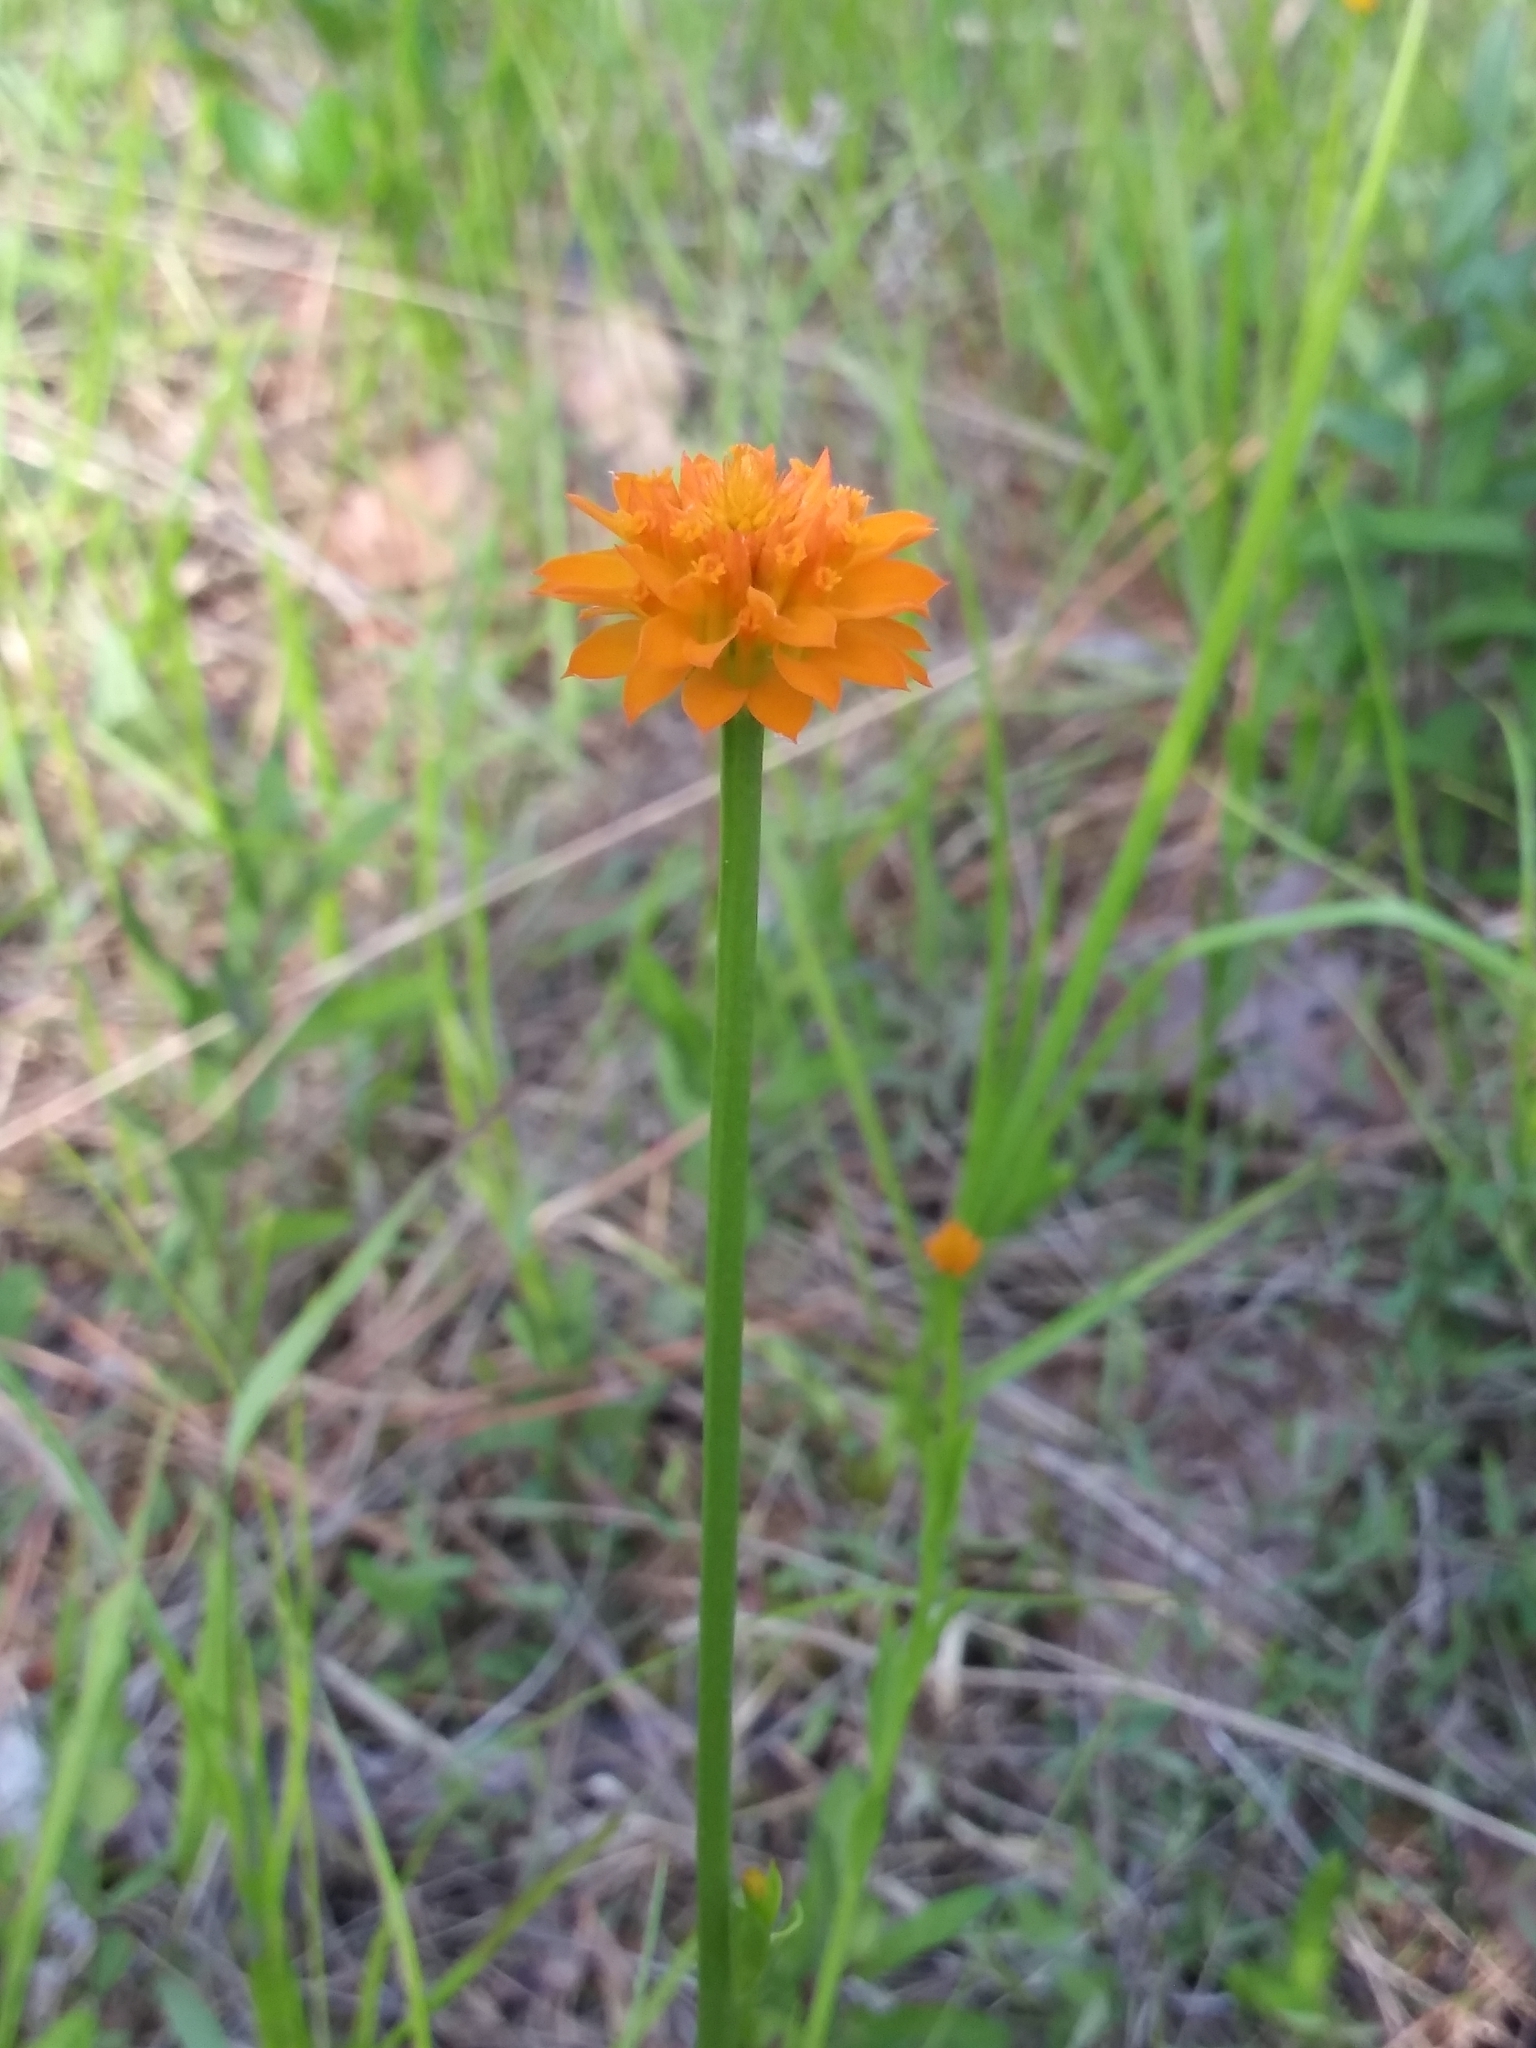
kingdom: Plantae
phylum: Tracheophyta
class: Magnoliopsida
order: Fabales
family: Polygalaceae
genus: Polygala
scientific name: Polygala lutea
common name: Orange milkwort
